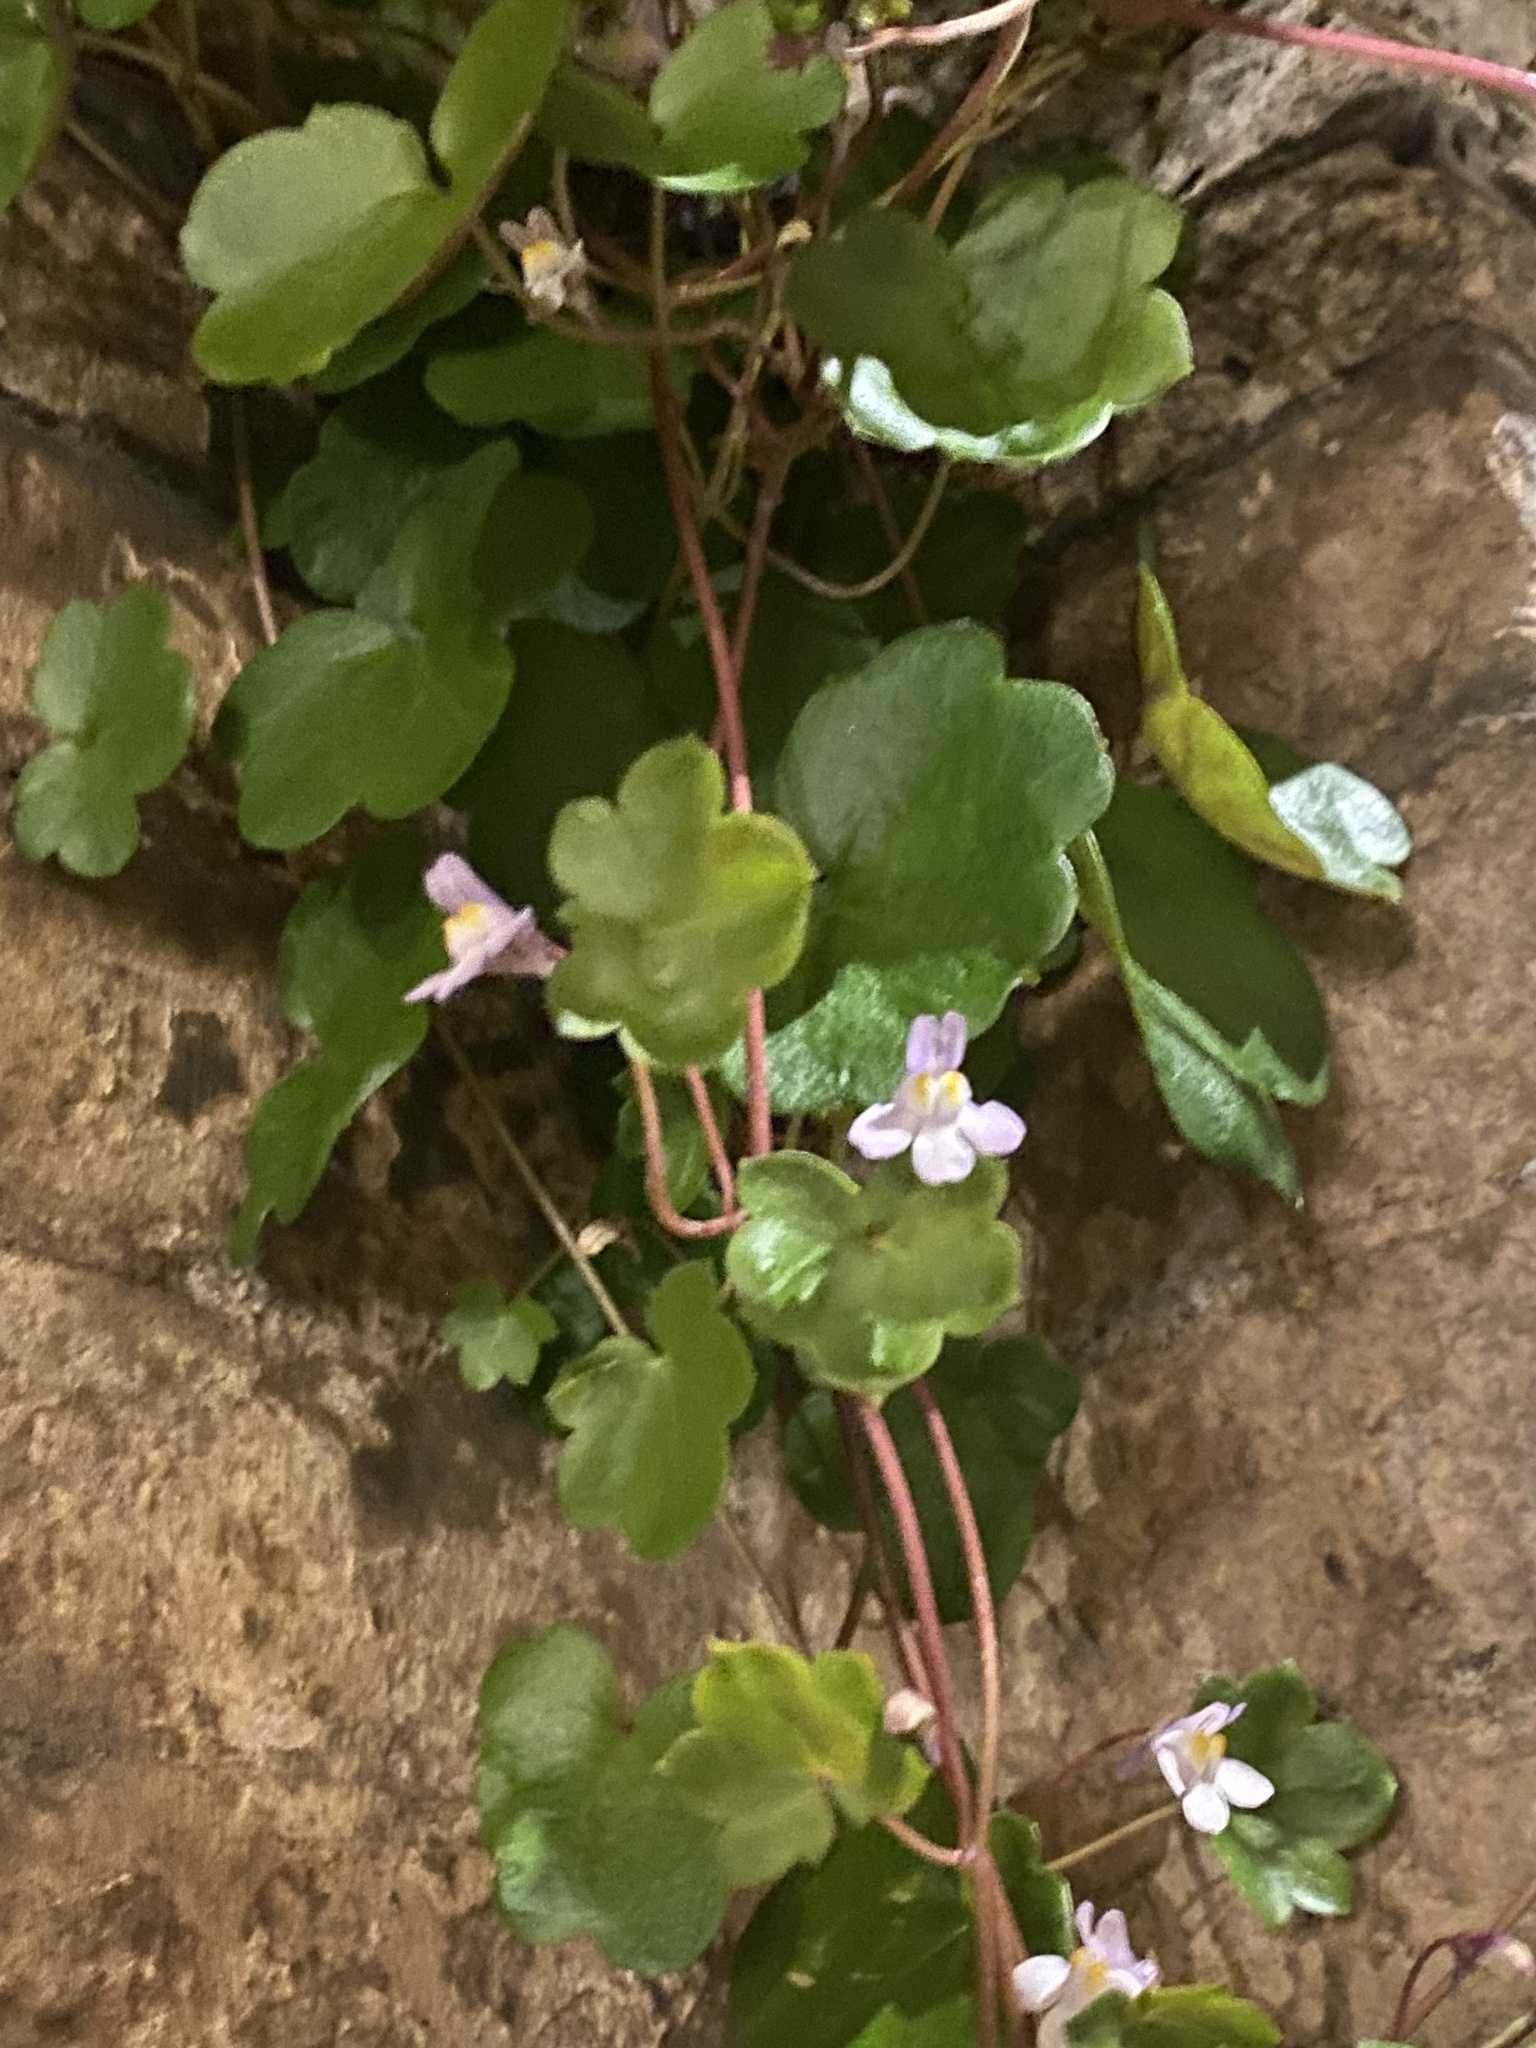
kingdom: Plantae
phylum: Tracheophyta
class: Magnoliopsida
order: Lamiales
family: Plantaginaceae
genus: Cymbalaria
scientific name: Cymbalaria muralis
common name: Ivy-leaved toadflax
